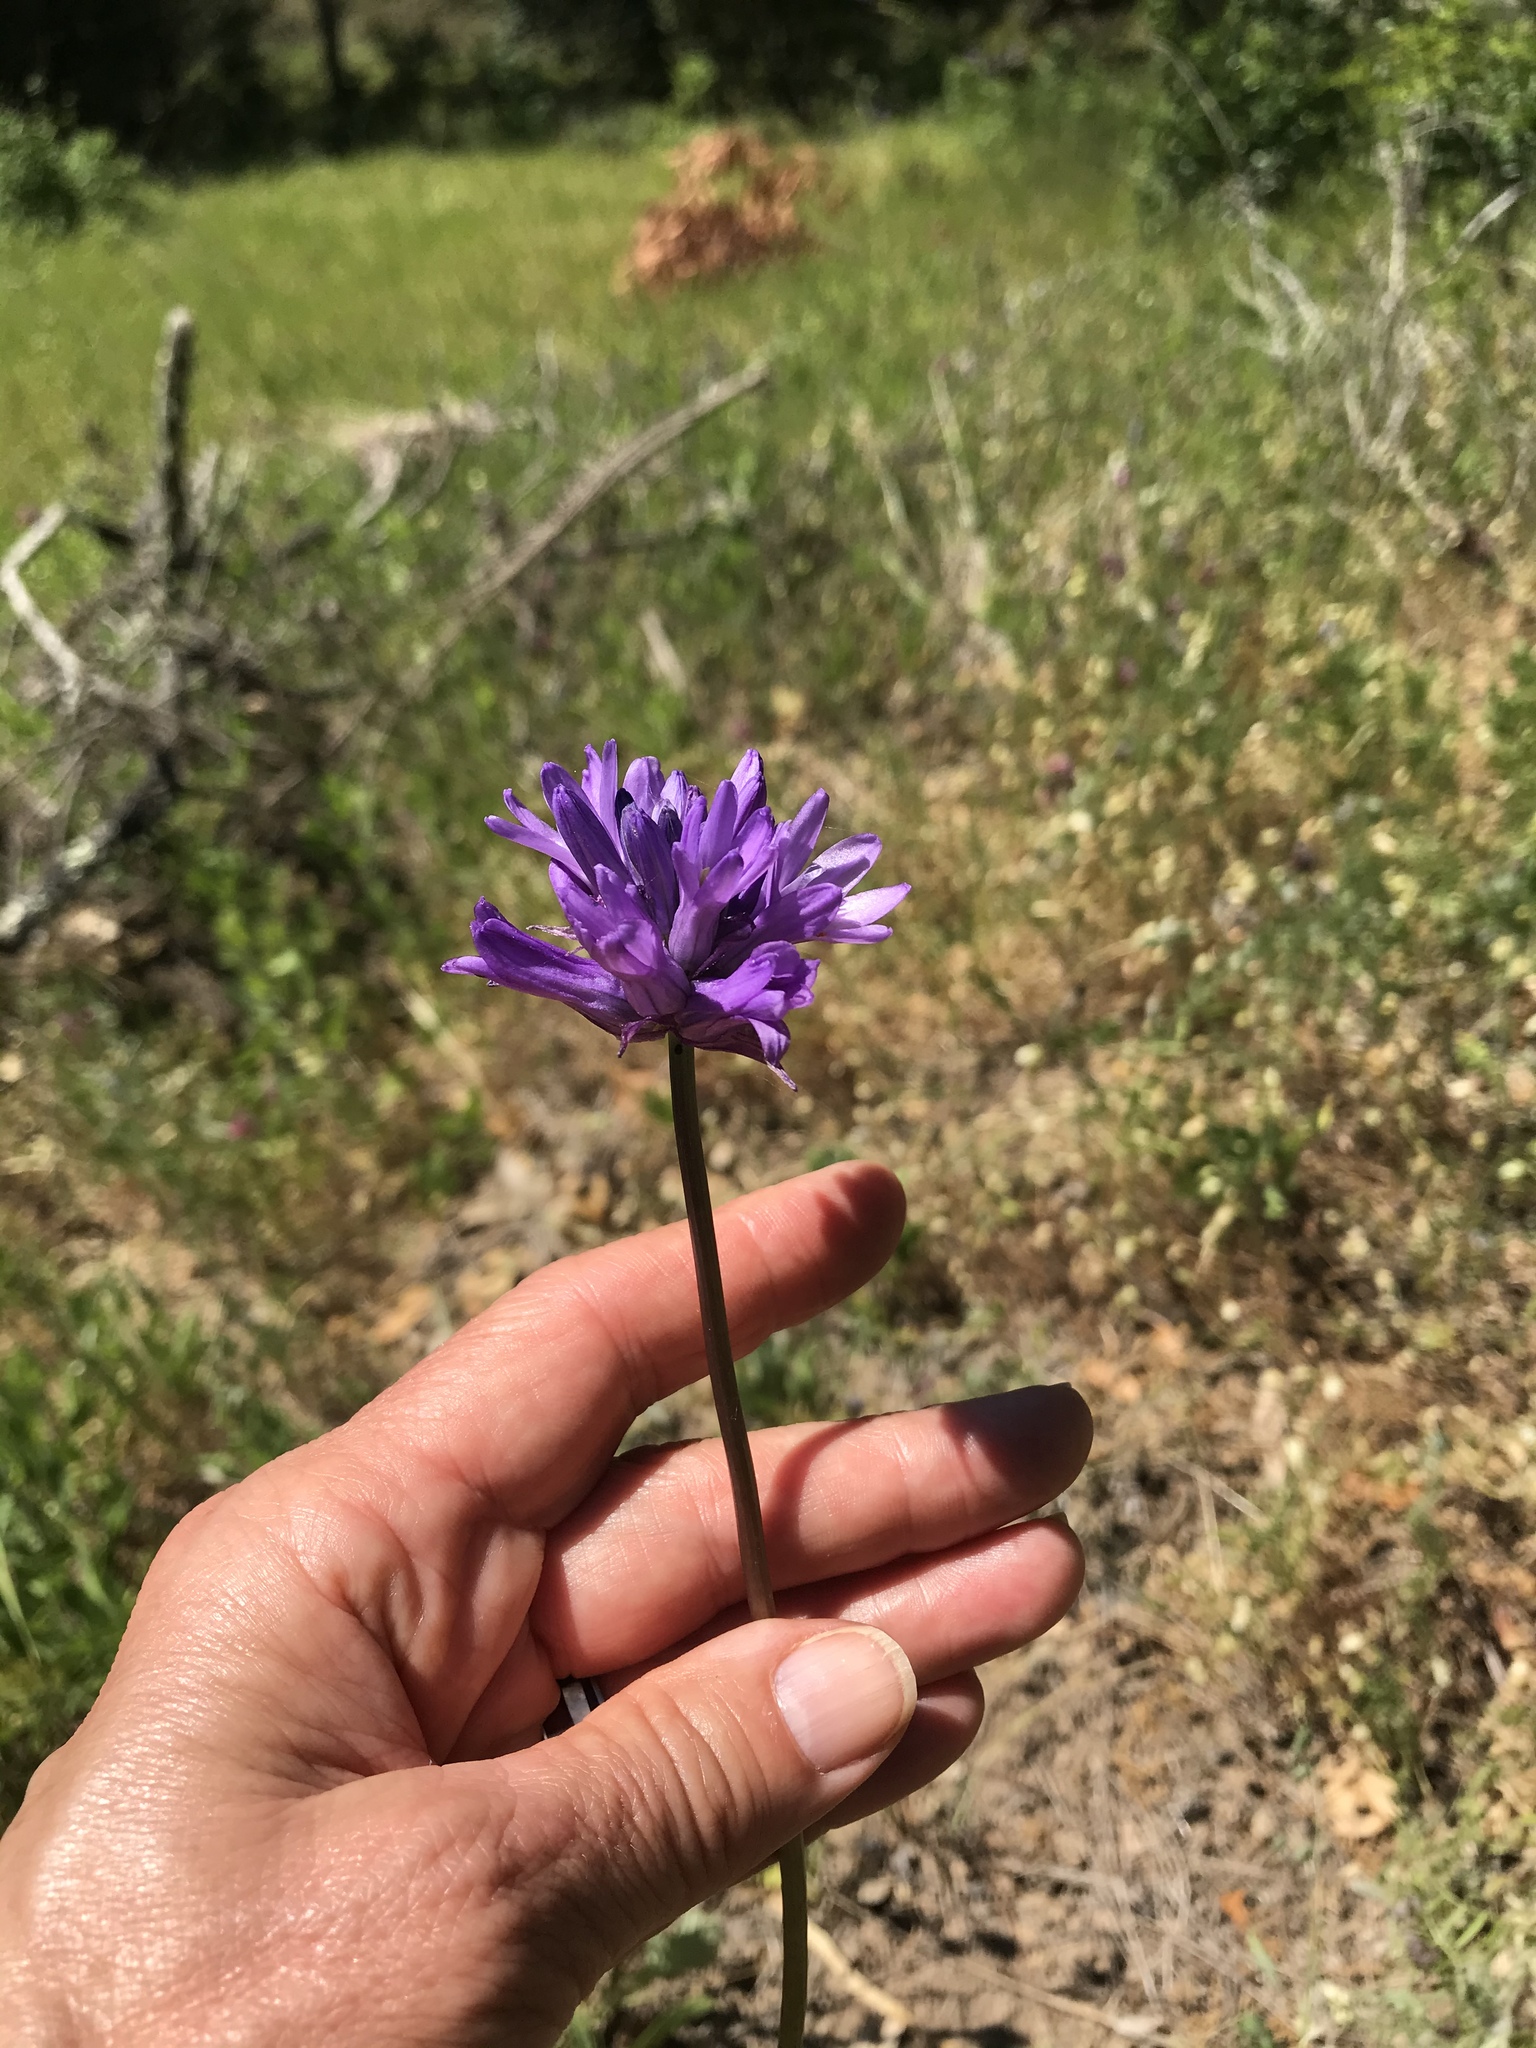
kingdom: Plantae
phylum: Tracheophyta
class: Liliopsida
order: Asparagales
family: Asparagaceae
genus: Dichelostemma
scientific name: Dichelostemma congestum
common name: Fork-tooth ookow
